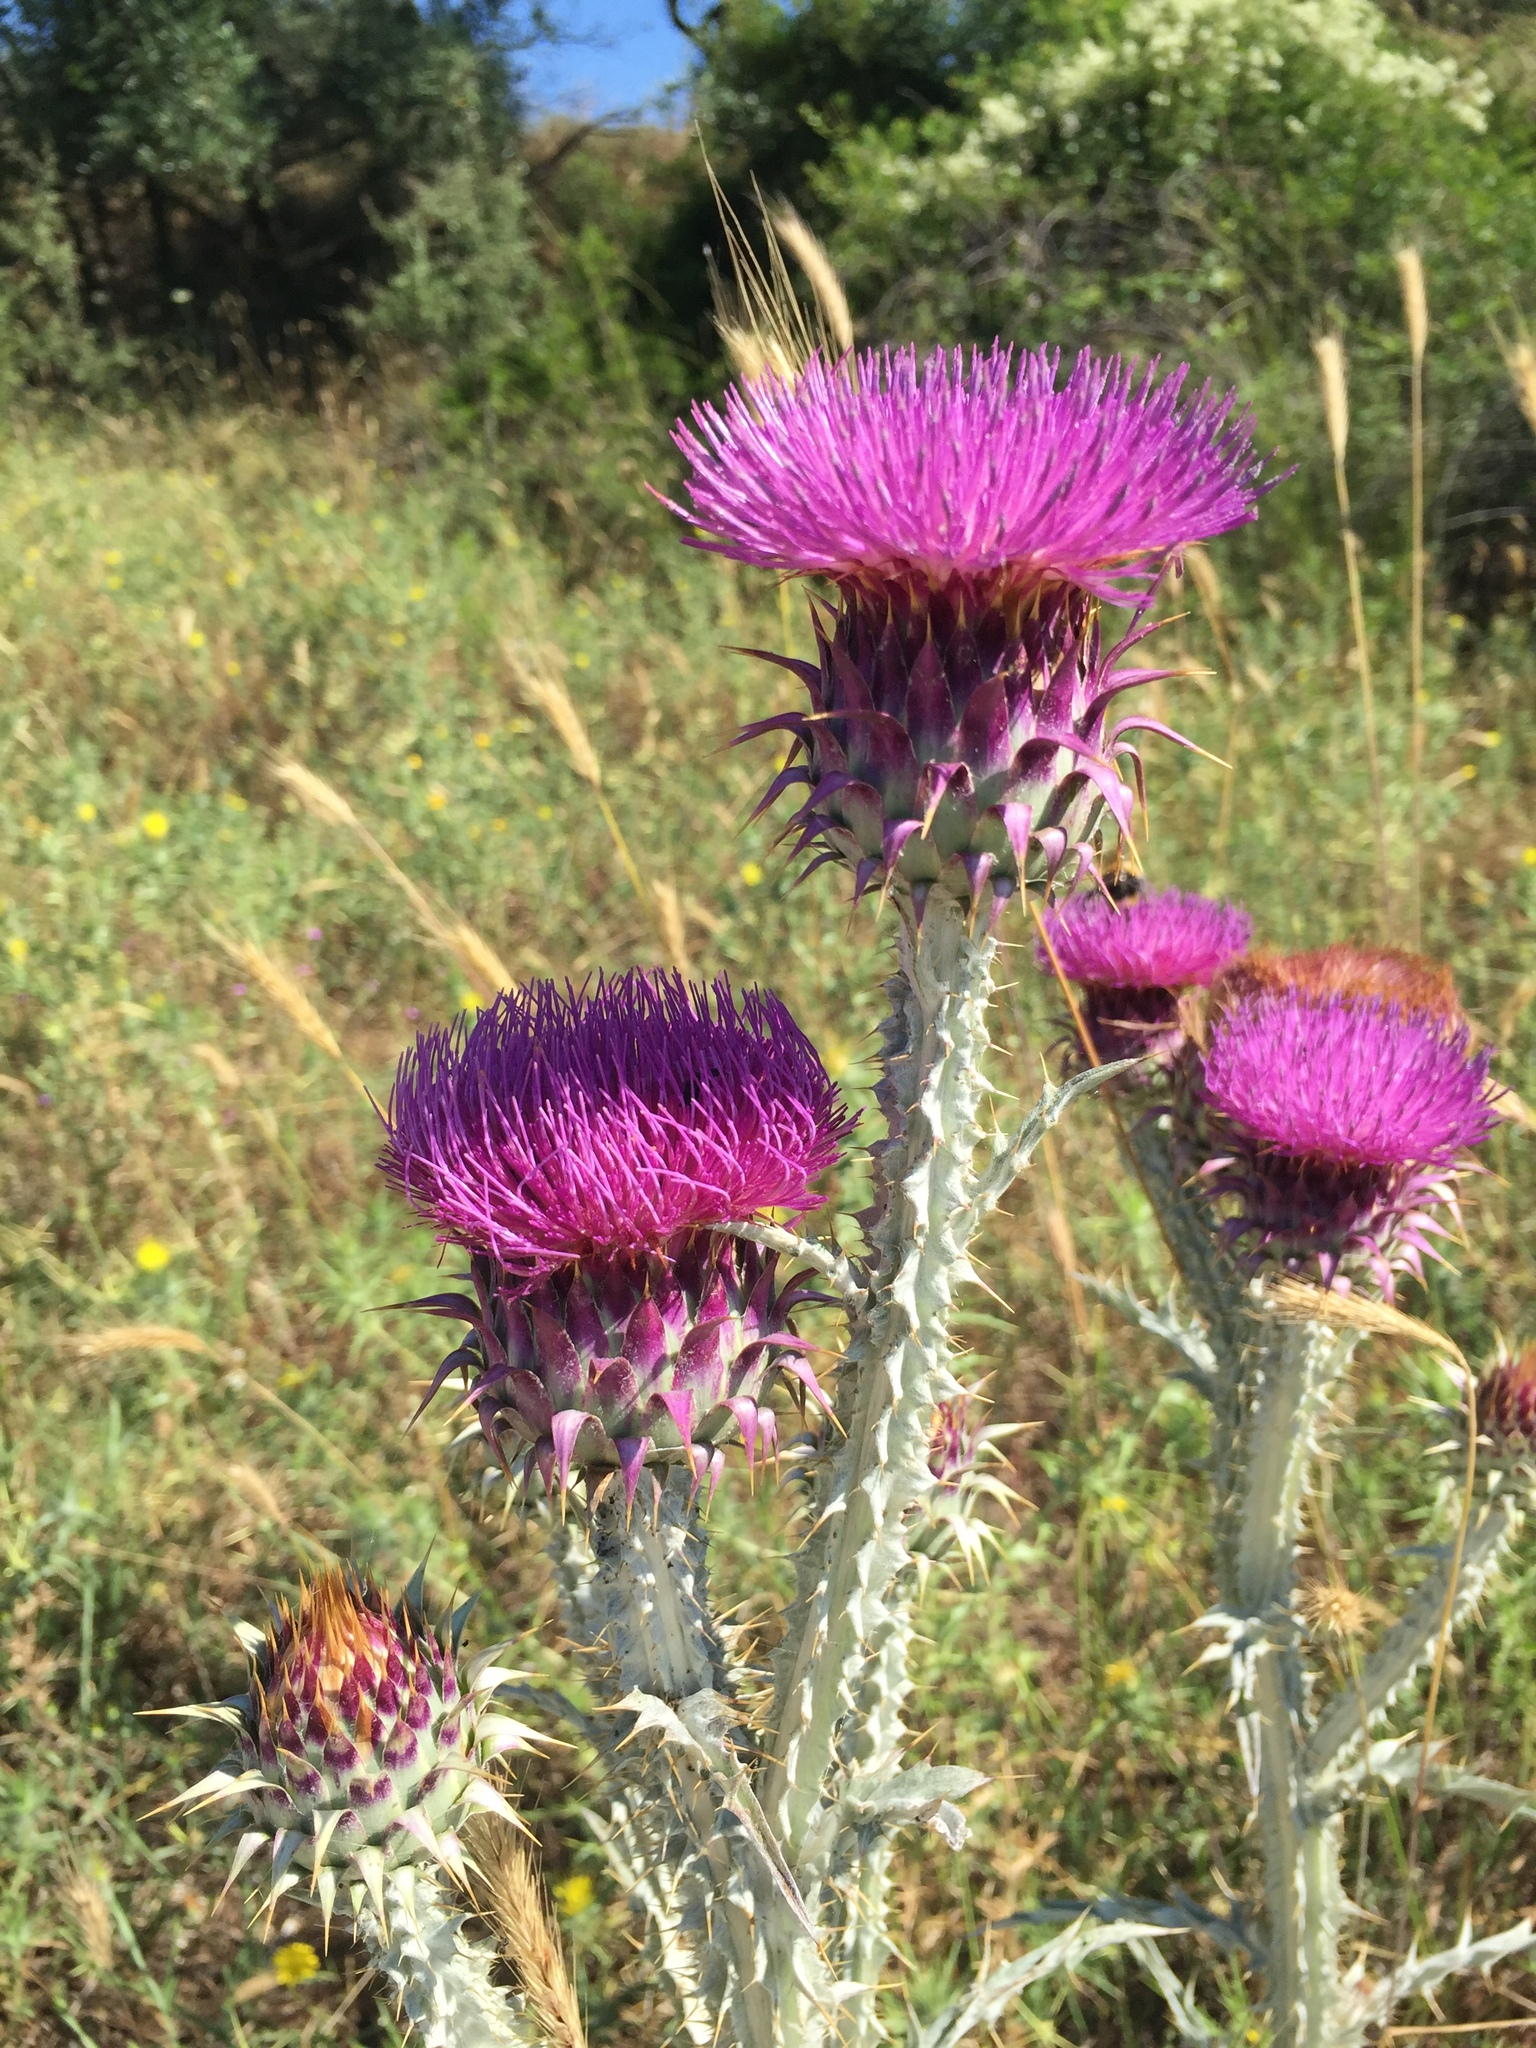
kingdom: Plantae
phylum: Tracheophyta
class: Magnoliopsida
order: Asterales
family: Asteraceae
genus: Onopordum
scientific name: Onopordum illyricum
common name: Illyrian thistle
